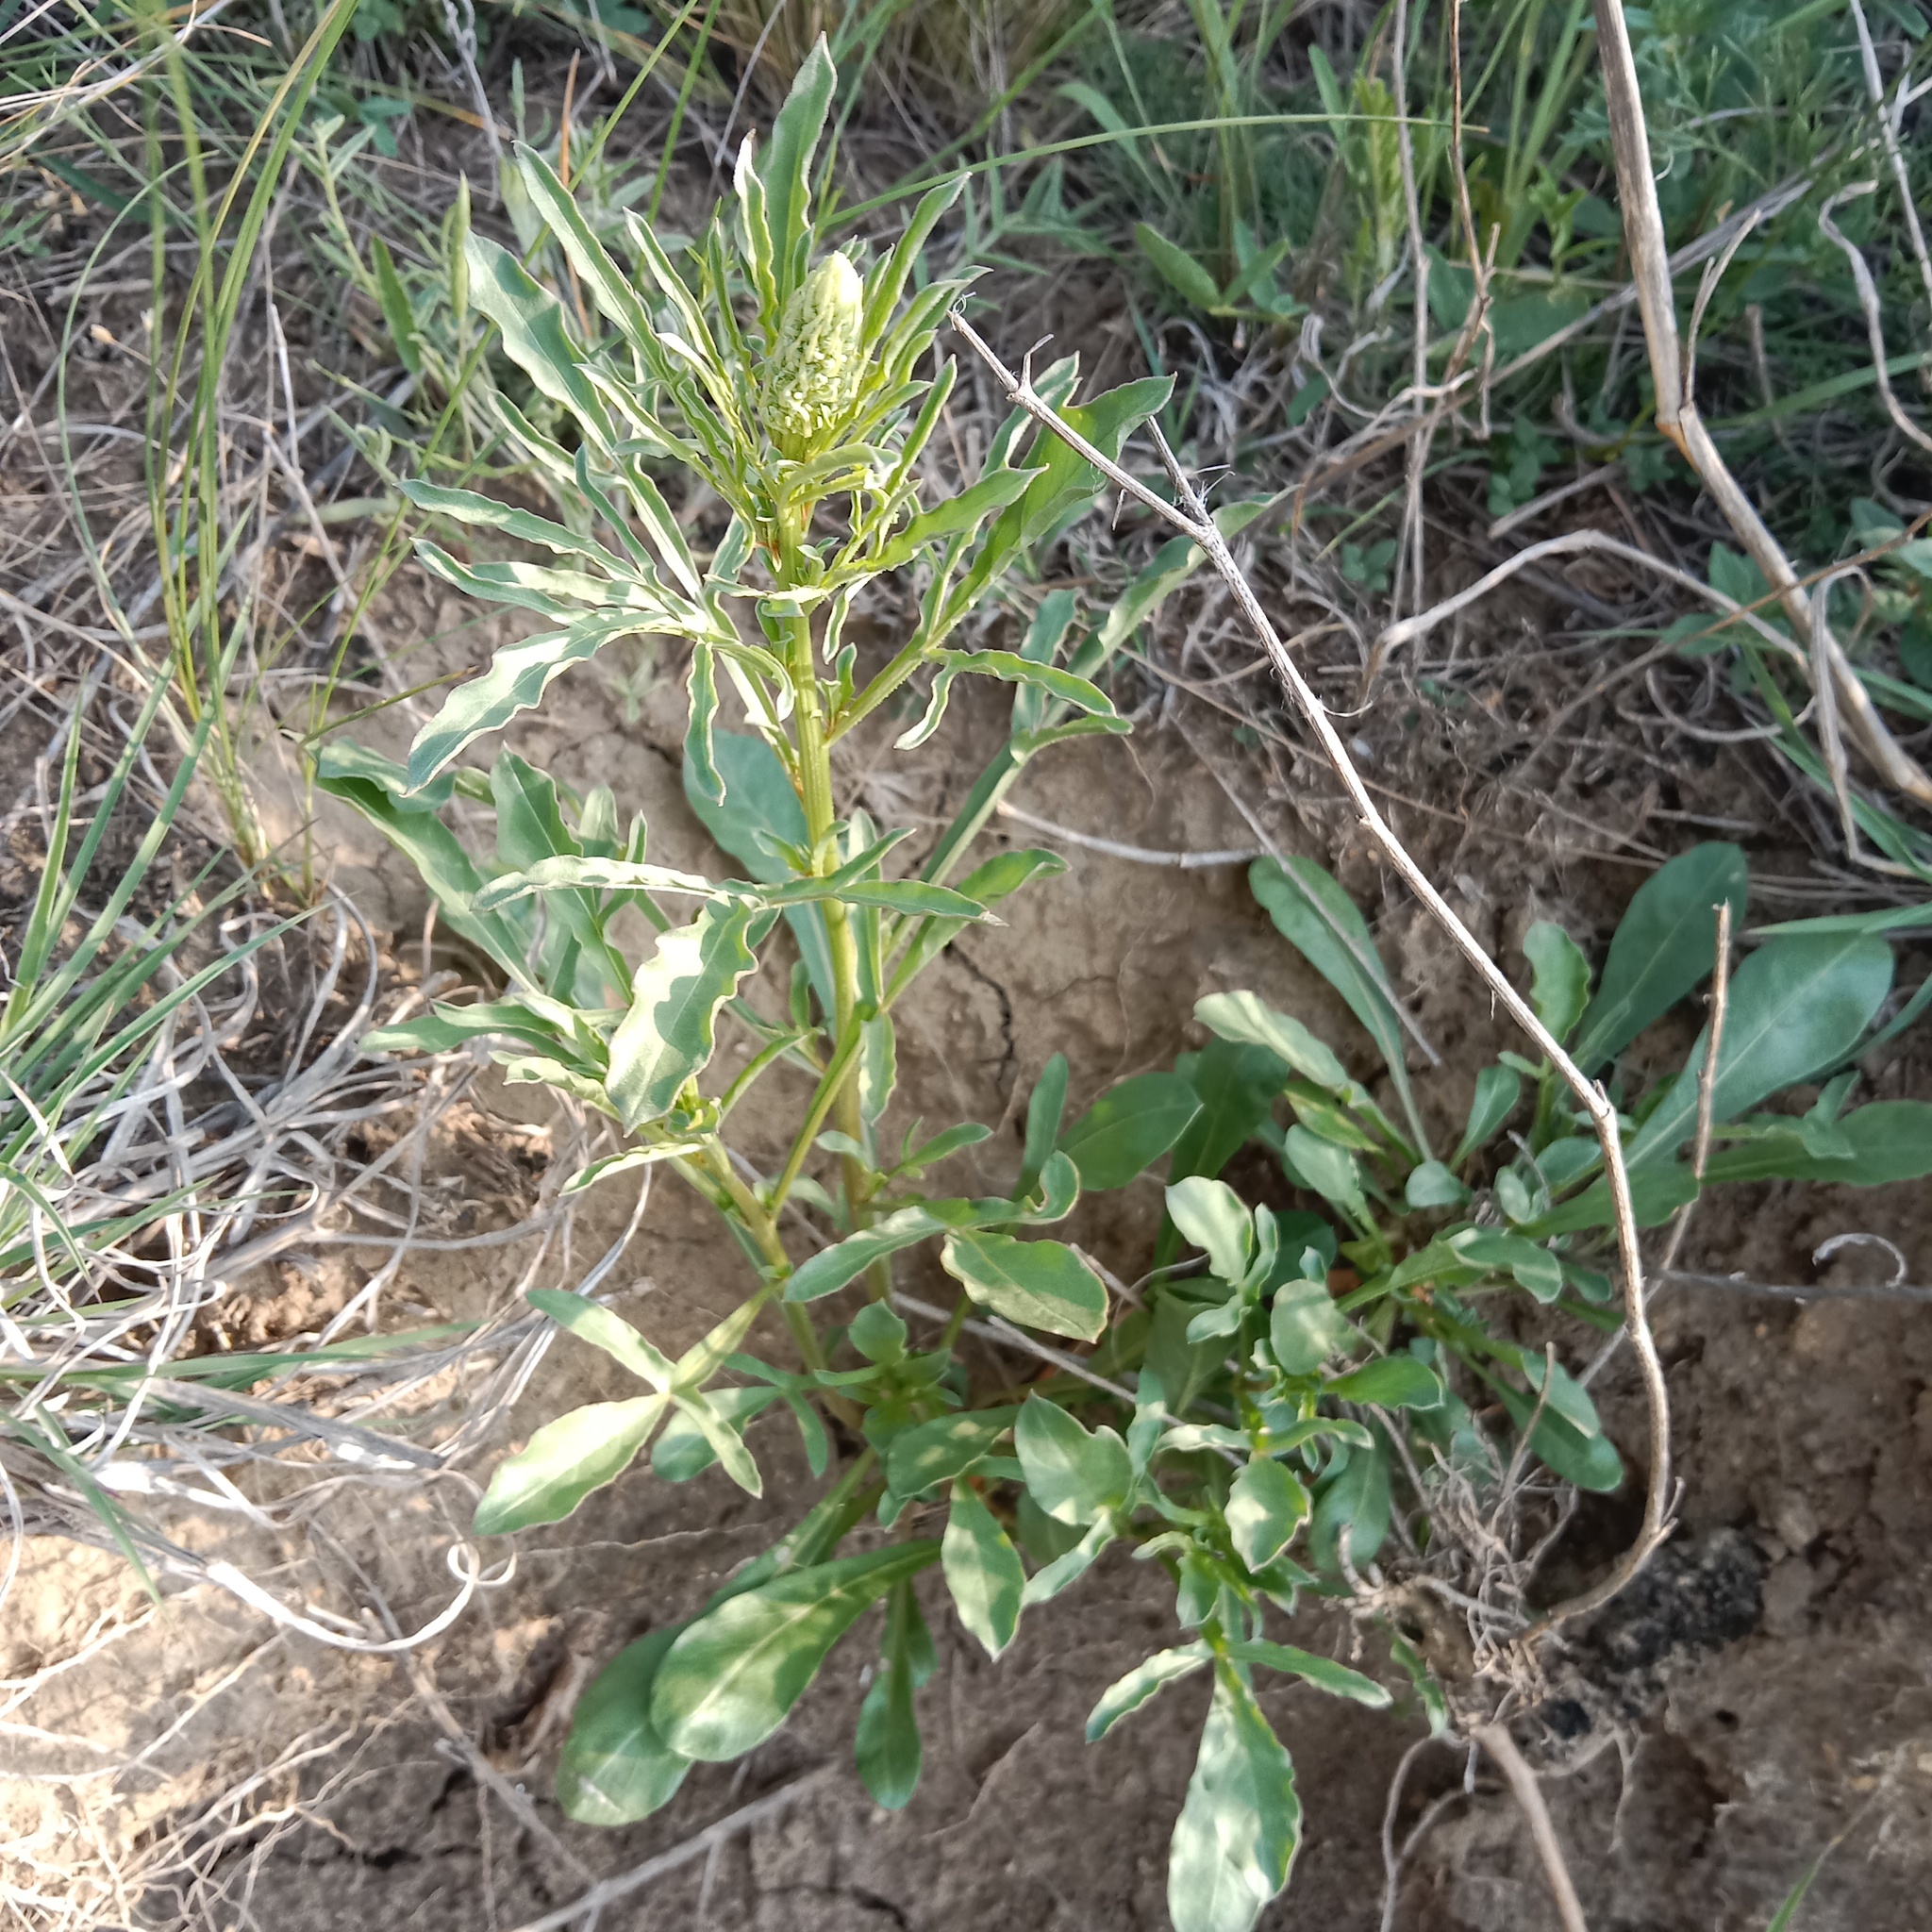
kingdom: Plantae
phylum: Tracheophyta
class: Magnoliopsida
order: Brassicales
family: Resedaceae
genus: Reseda
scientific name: Reseda lutea
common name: Wild mignonette
